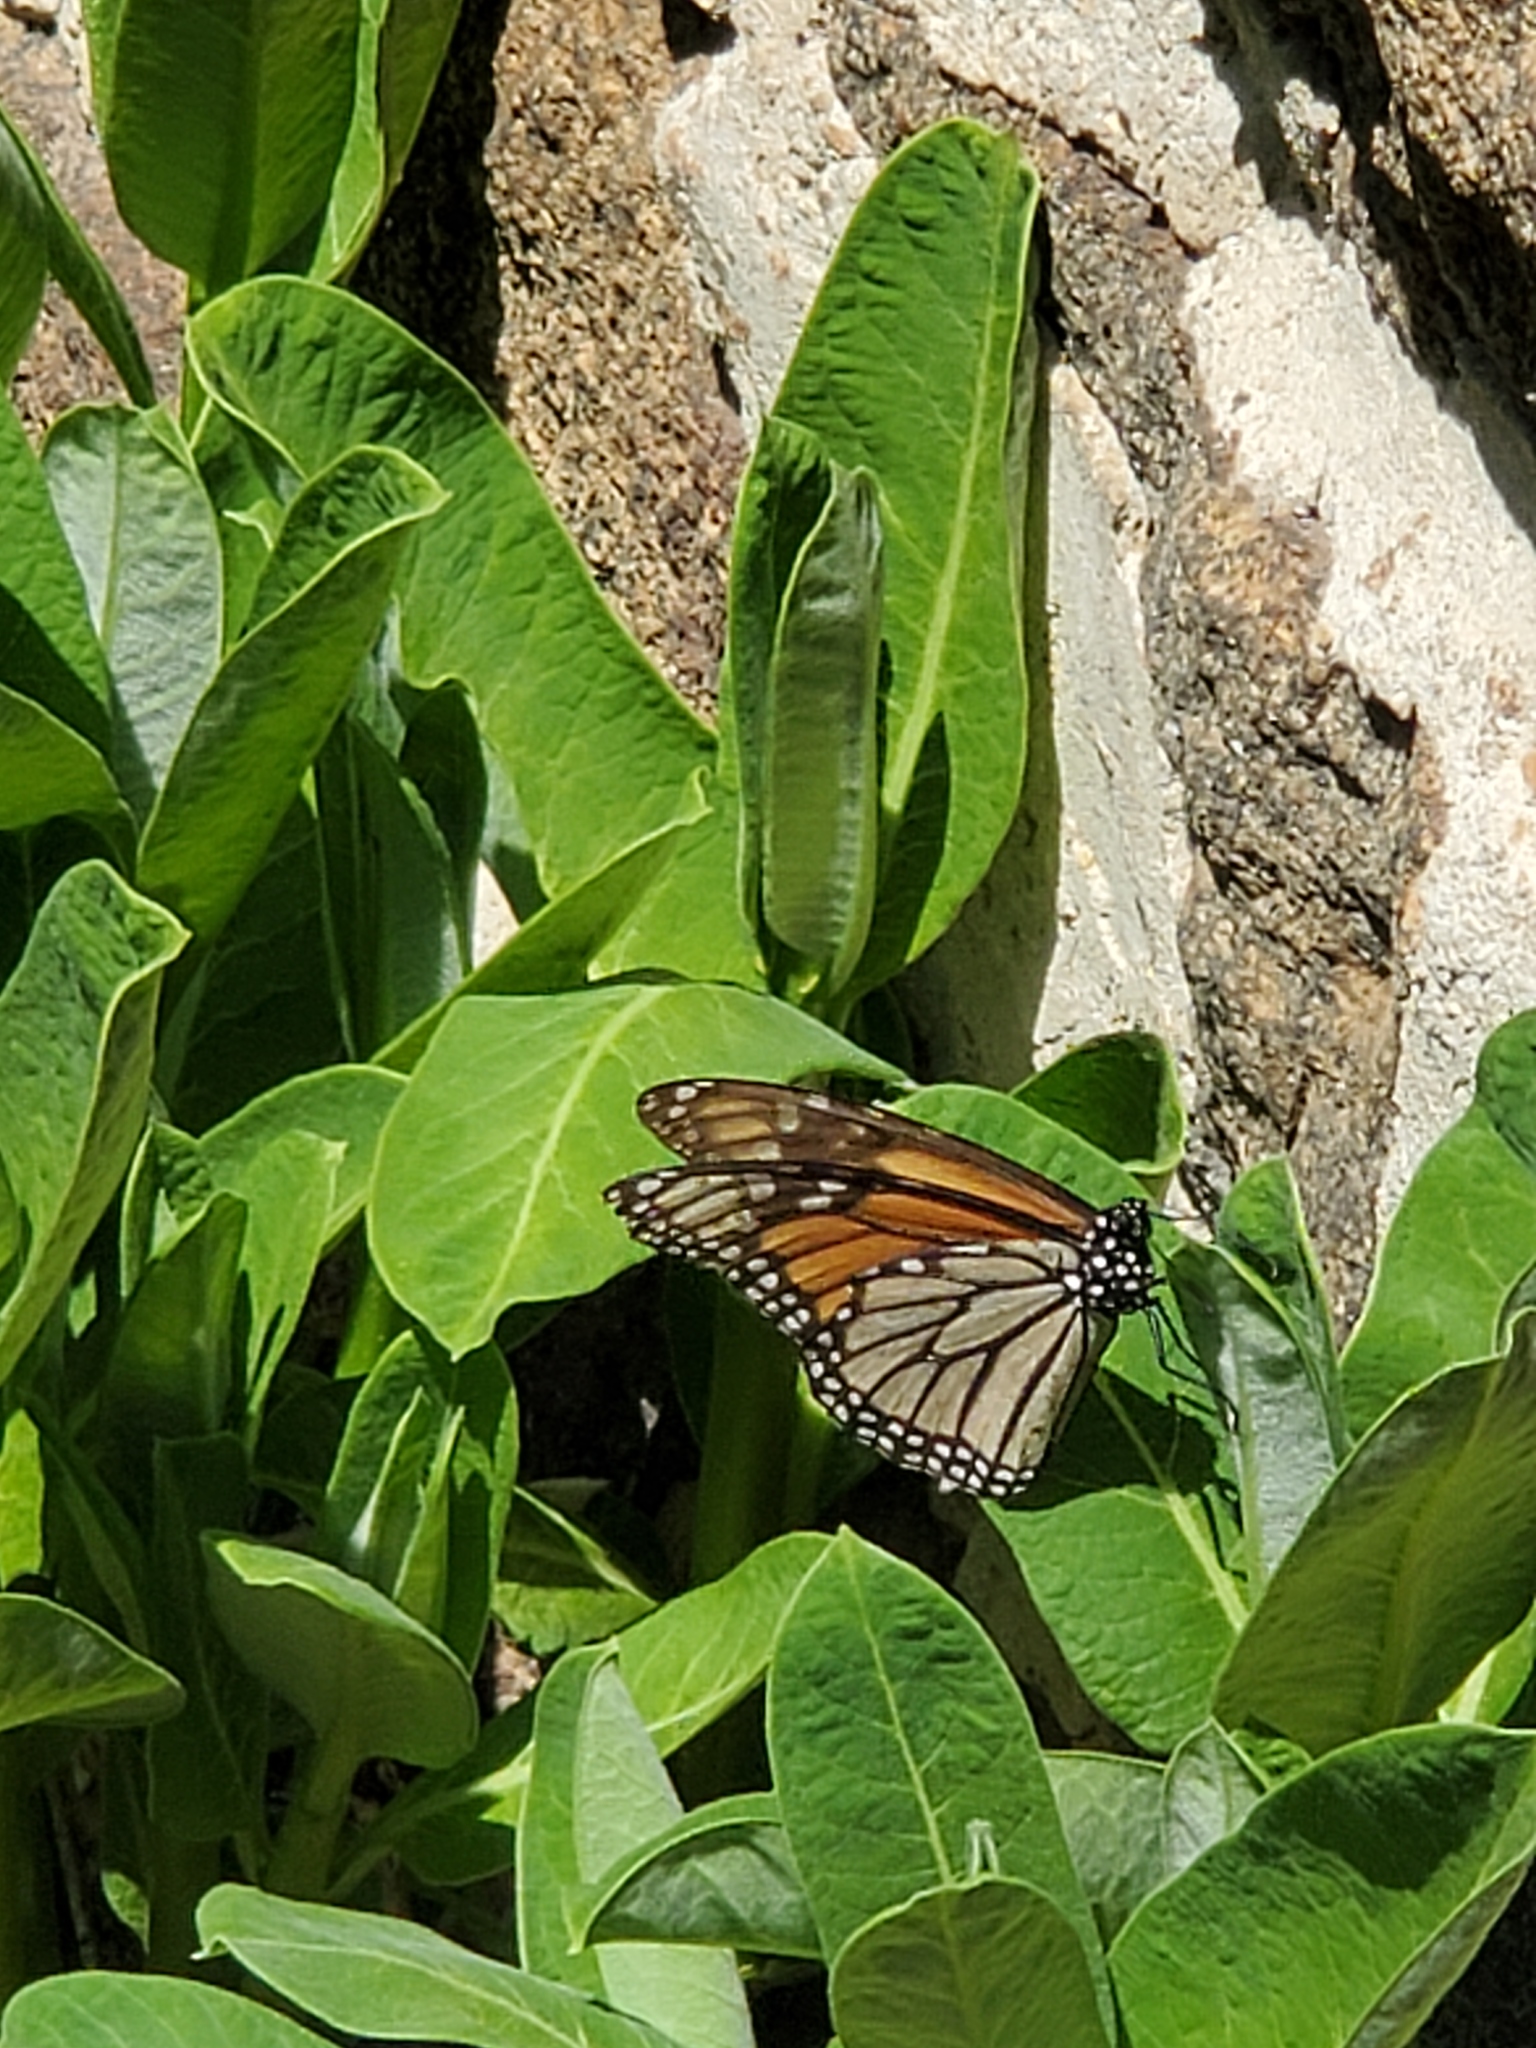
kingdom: Animalia
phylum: Arthropoda
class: Insecta
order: Lepidoptera
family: Nymphalidae
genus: Danaus
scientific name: Danaus plexippus
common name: Monarch
